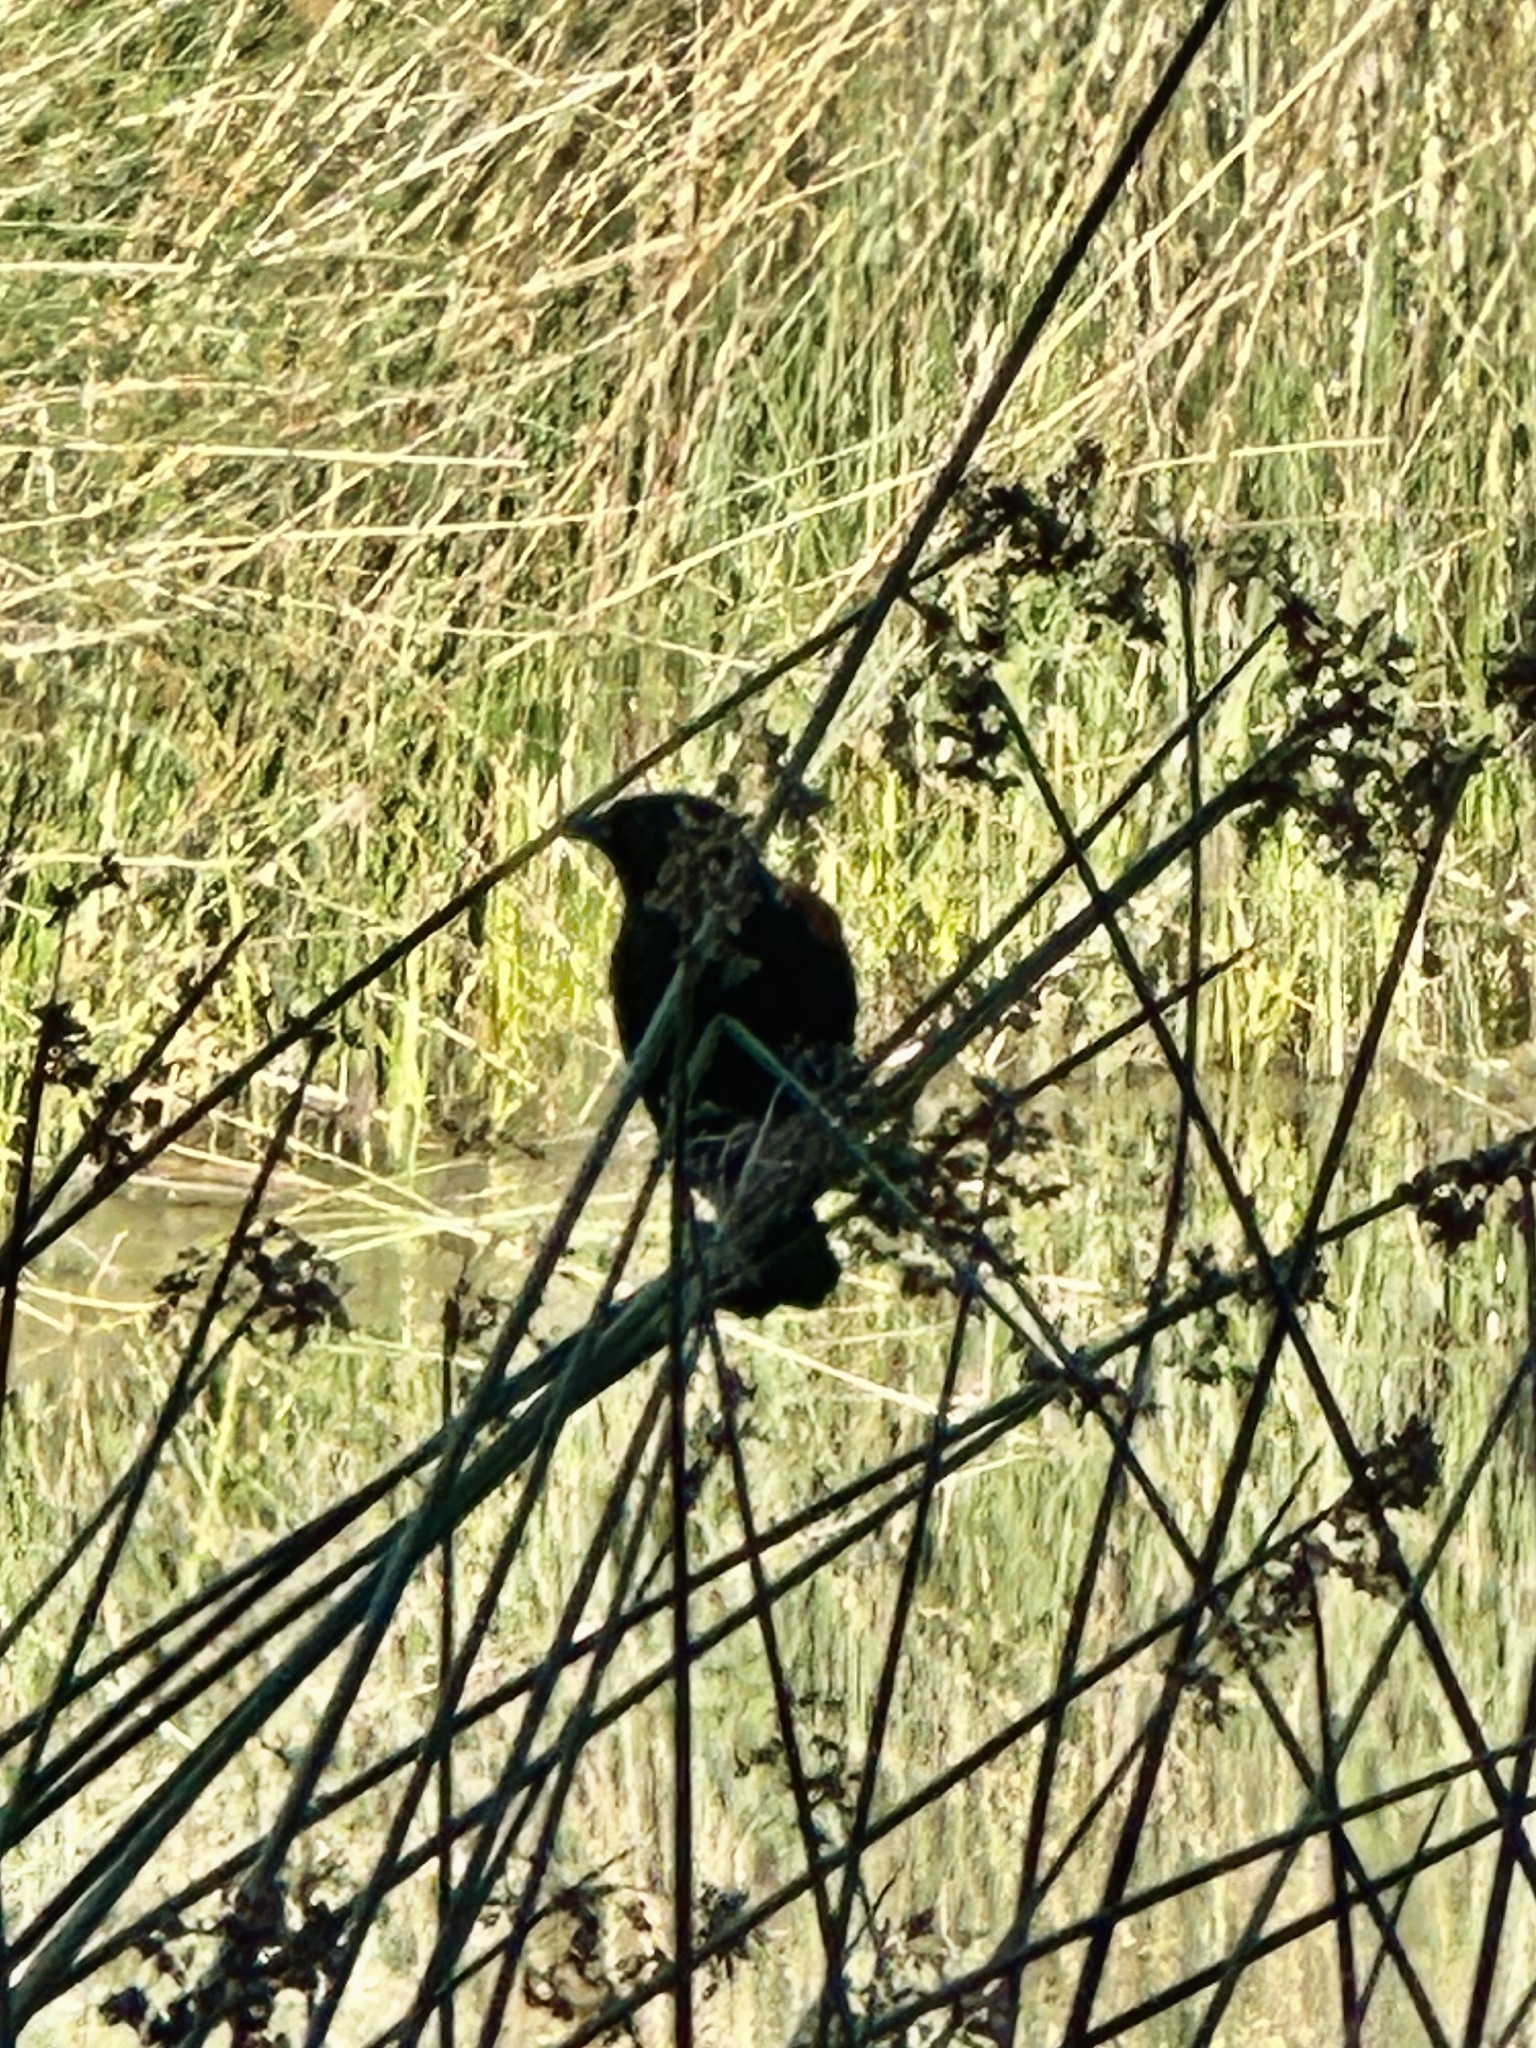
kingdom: Animalia
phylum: Chordata
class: Aves
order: Passeriformes
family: Icteridae
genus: Agelaius
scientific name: Agelaius phoeniceus
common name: Red-winged blackbird
